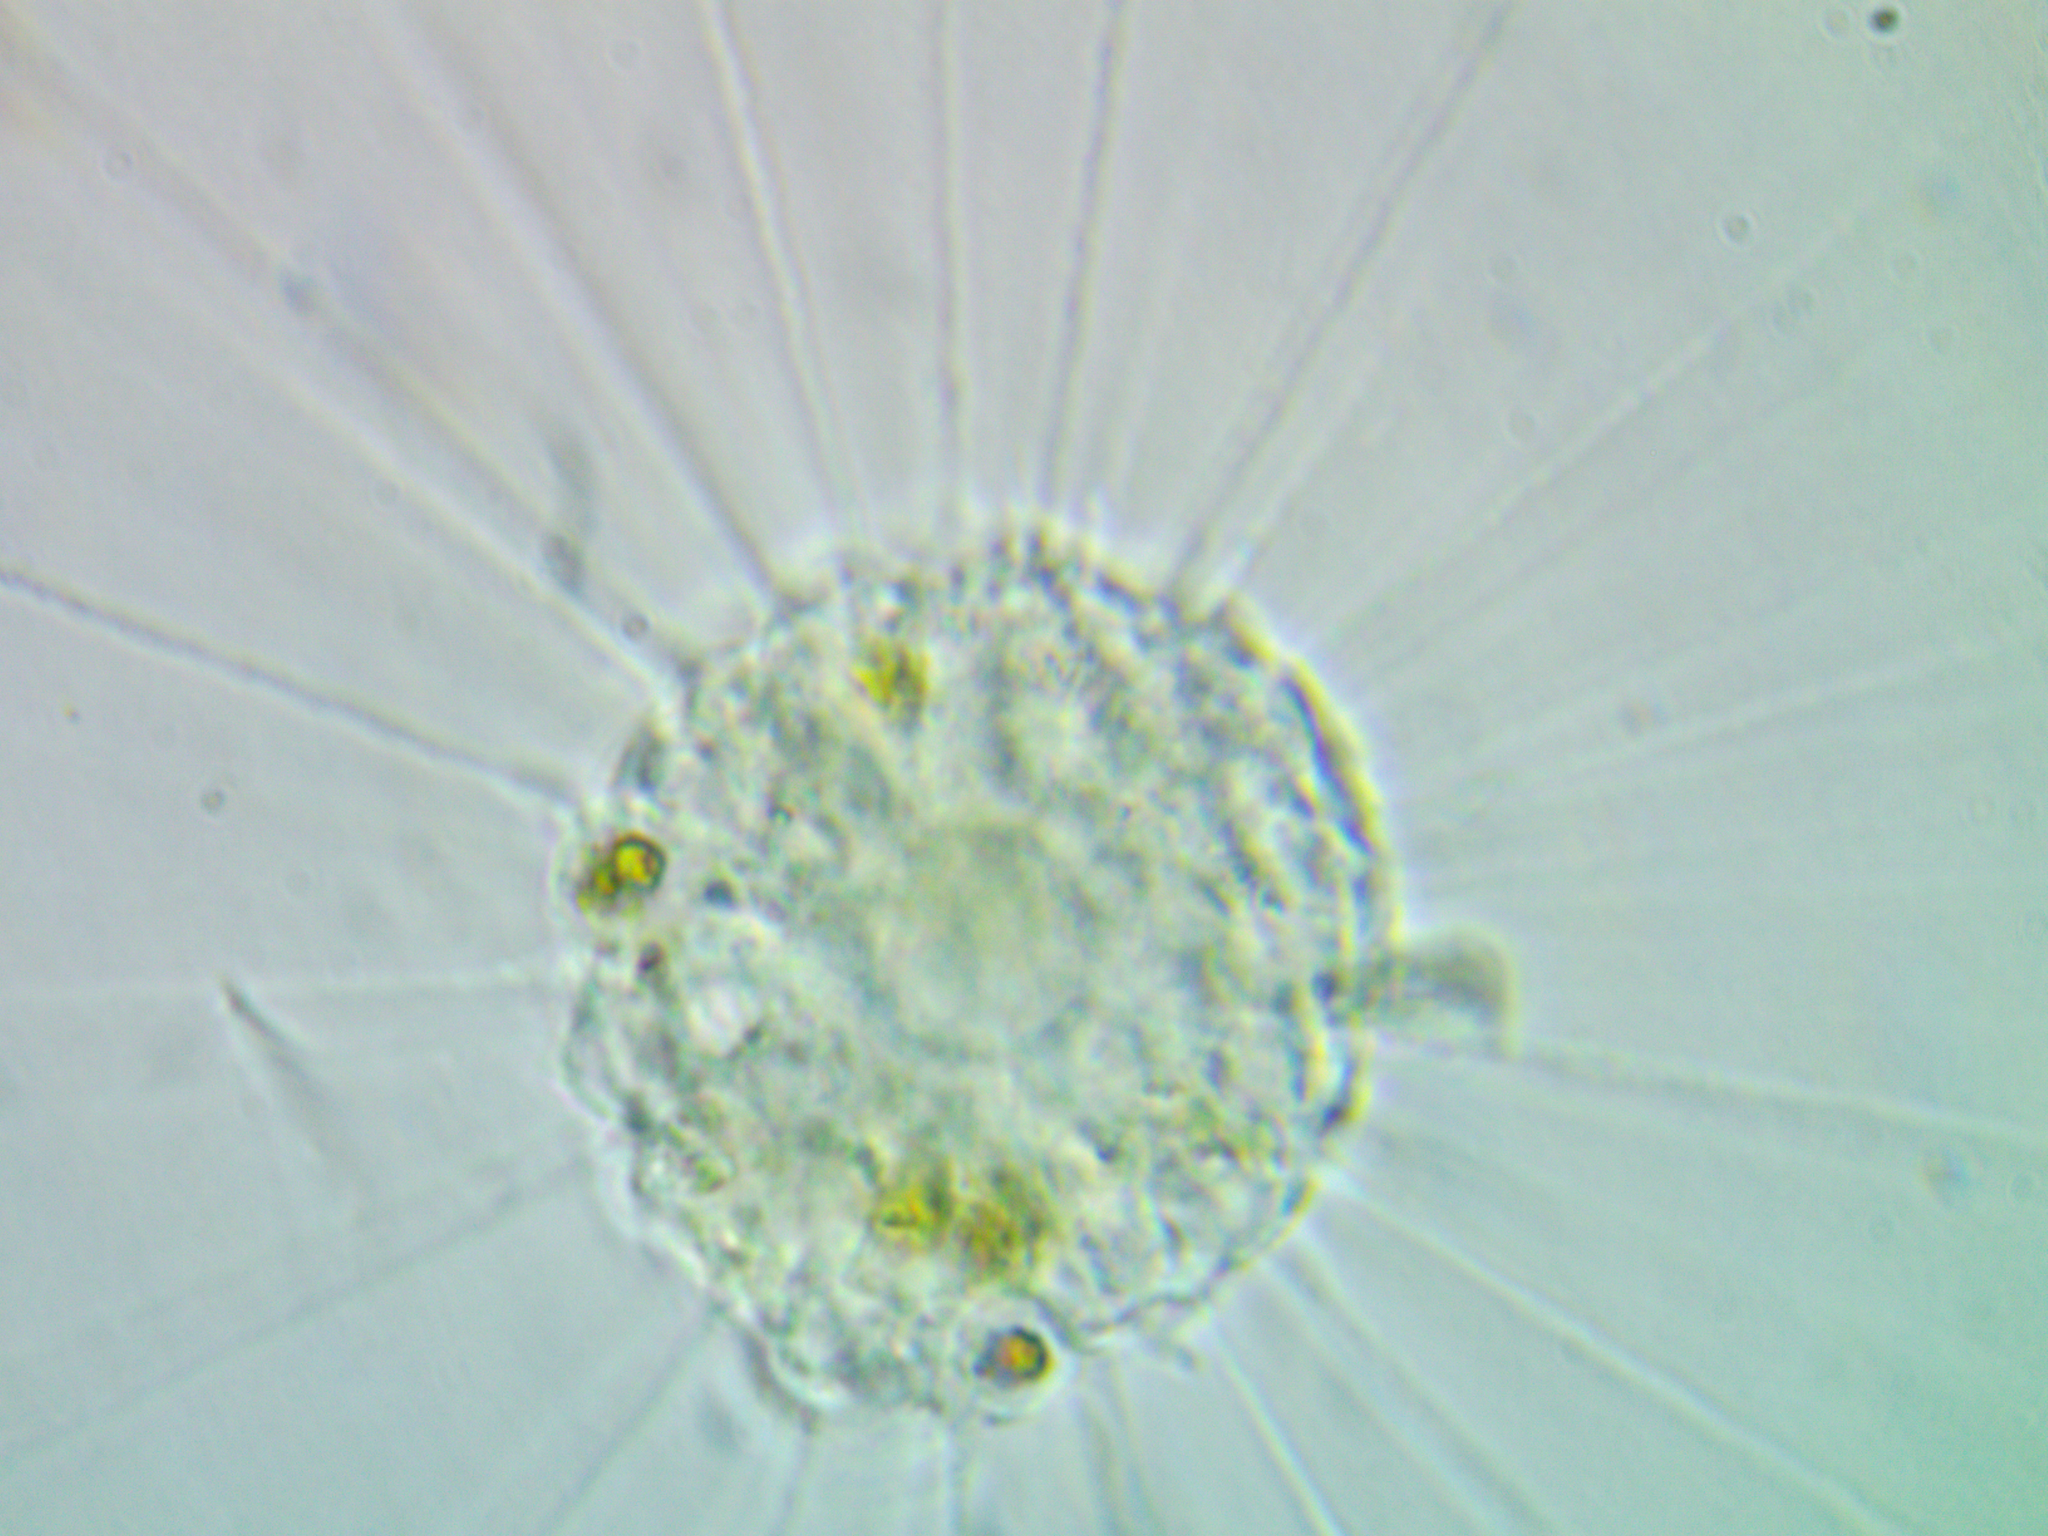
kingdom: Chromista
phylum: Ochrophyta
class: Raphidophyceae
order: Actinophryida
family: Actinophryidae
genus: Actinophrys
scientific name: Actinophrys sol
